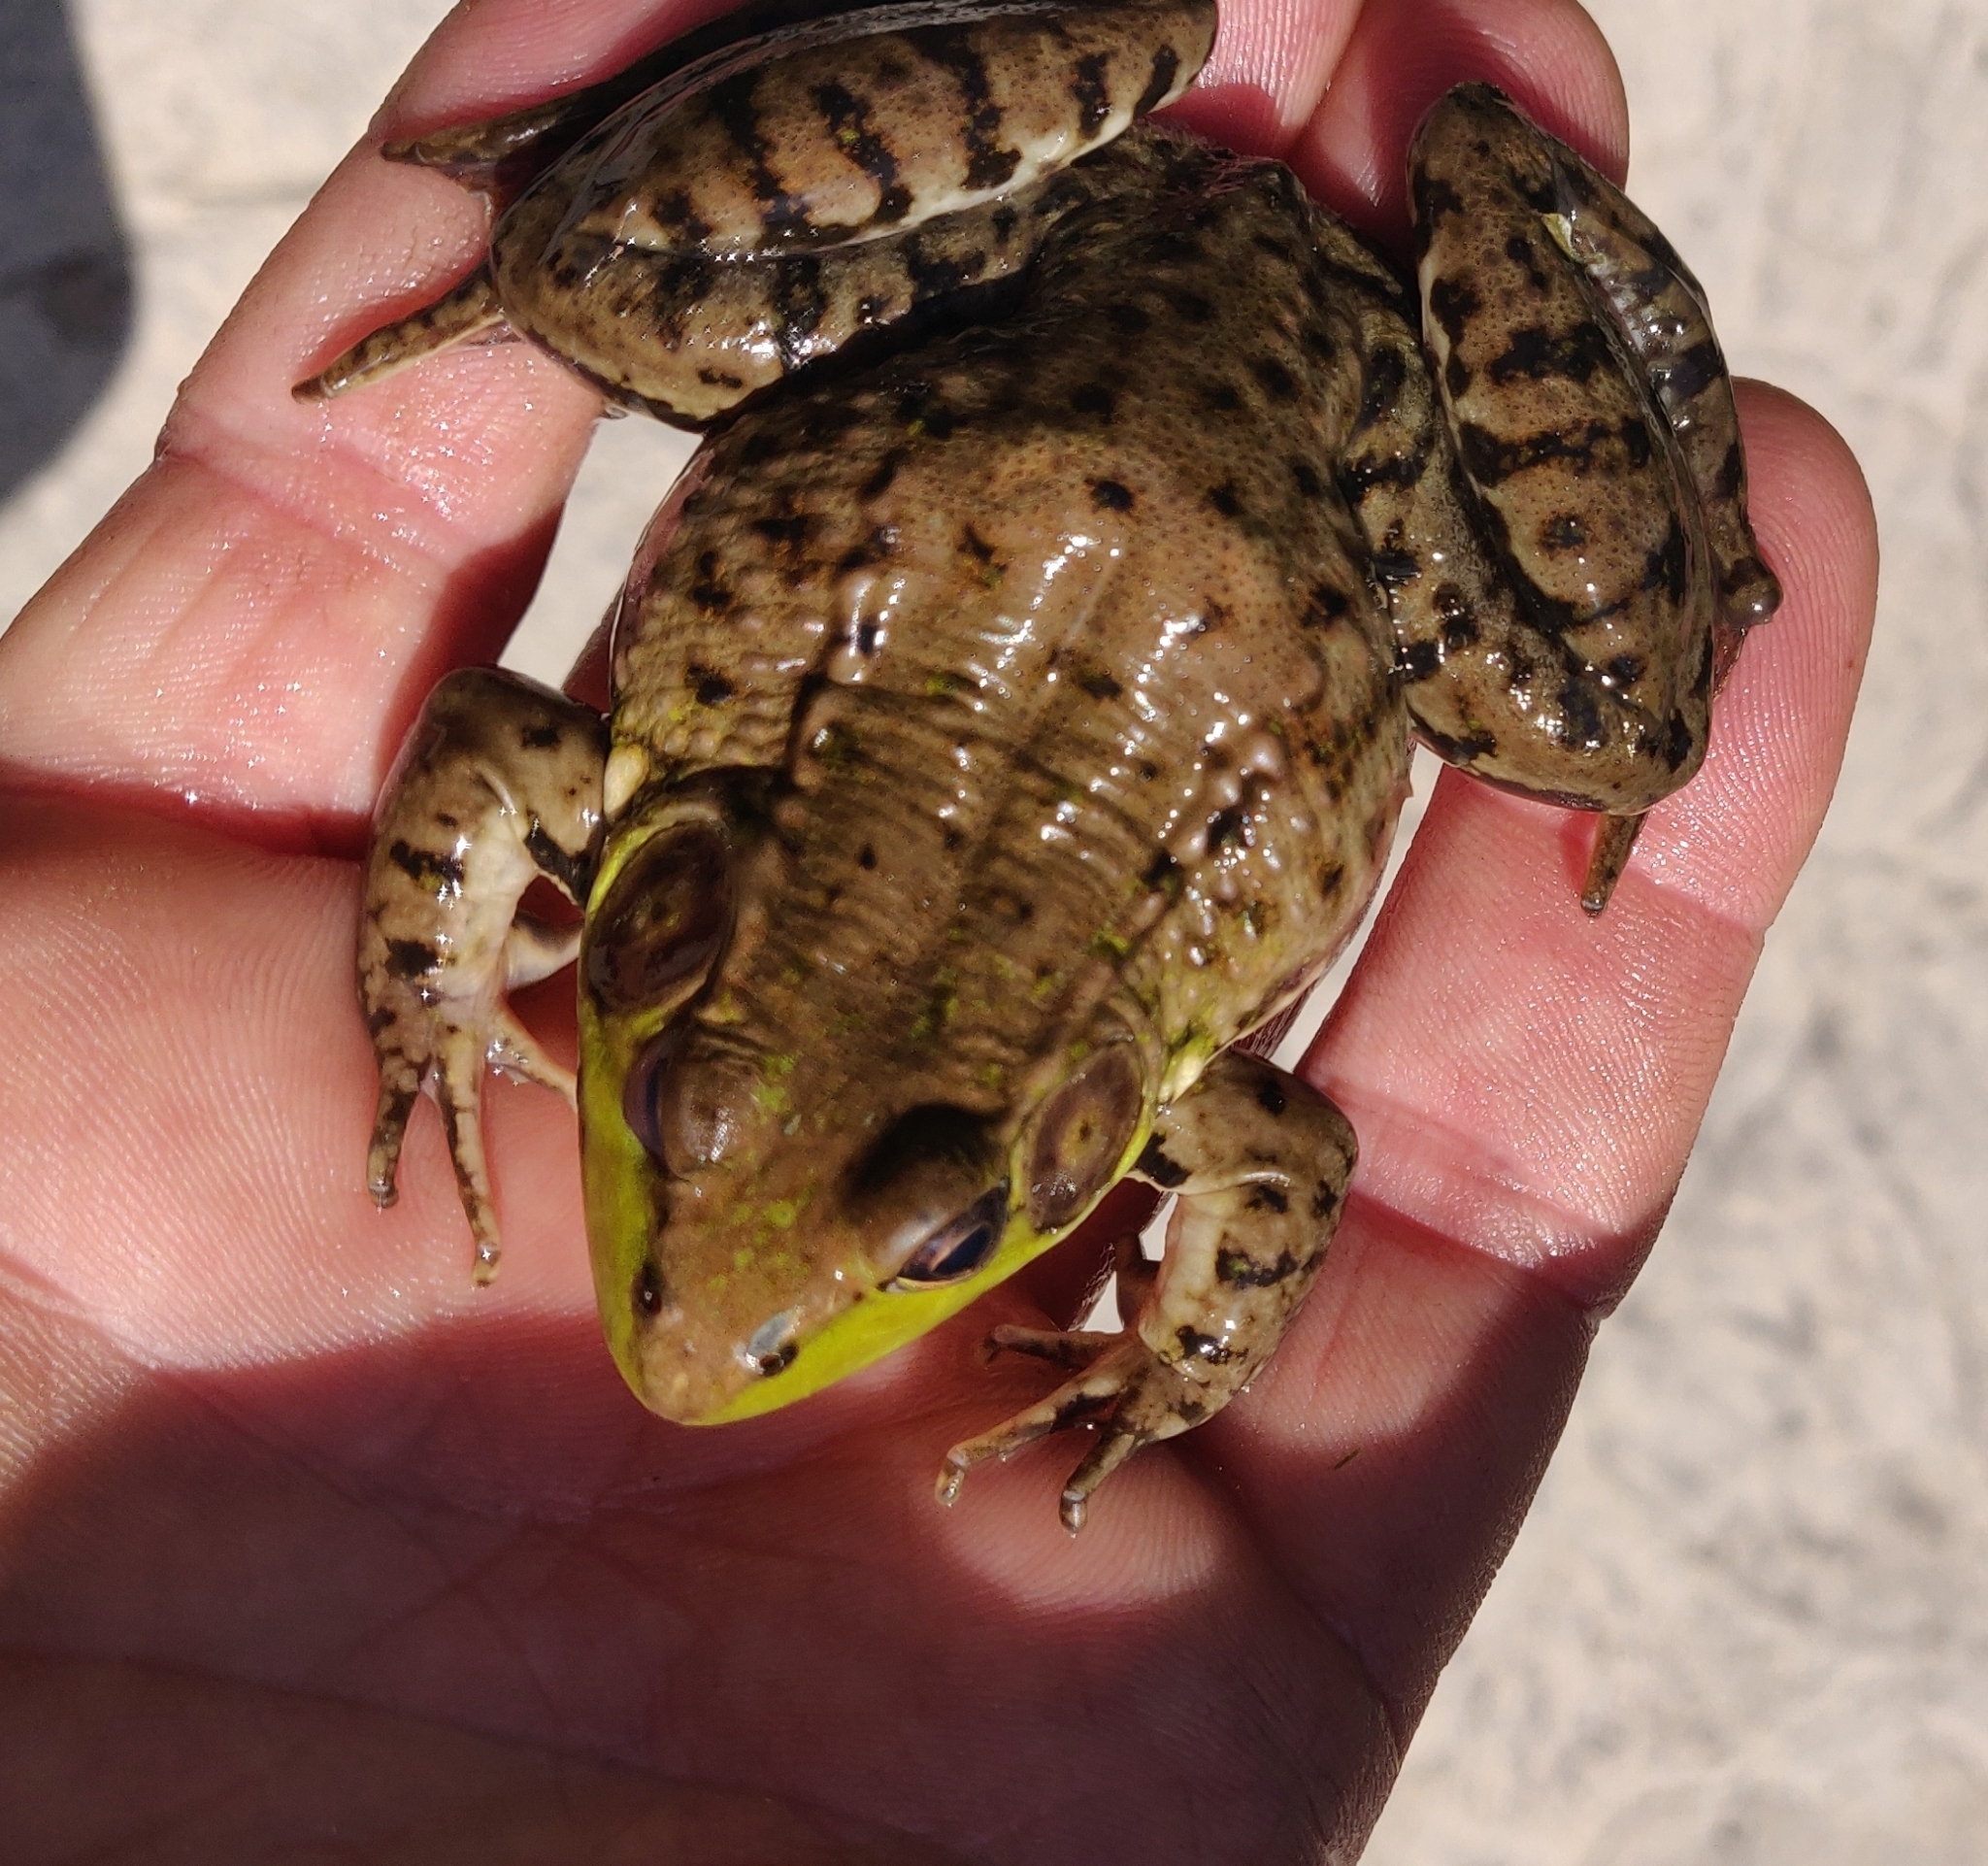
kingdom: Animalia
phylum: Chordata
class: Amphibia
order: Anura
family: Ranidae
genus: Lithobates
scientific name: Lithobates clamitans
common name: Green frog
